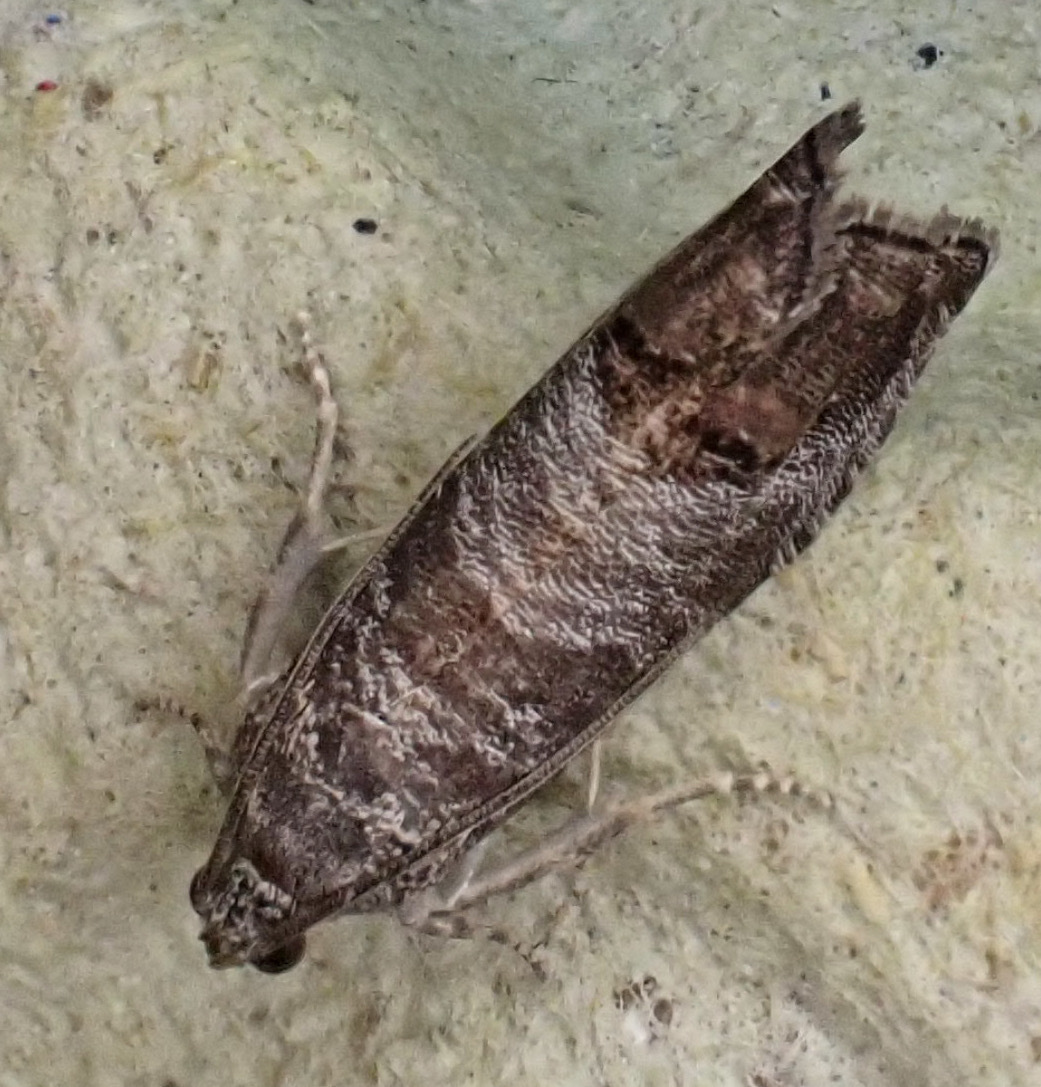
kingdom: Animalia
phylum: Arthropoda
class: Insecta
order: Lepidoptera
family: Tortricidae
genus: Cydia
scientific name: Cydia pomonella
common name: Codling moth
